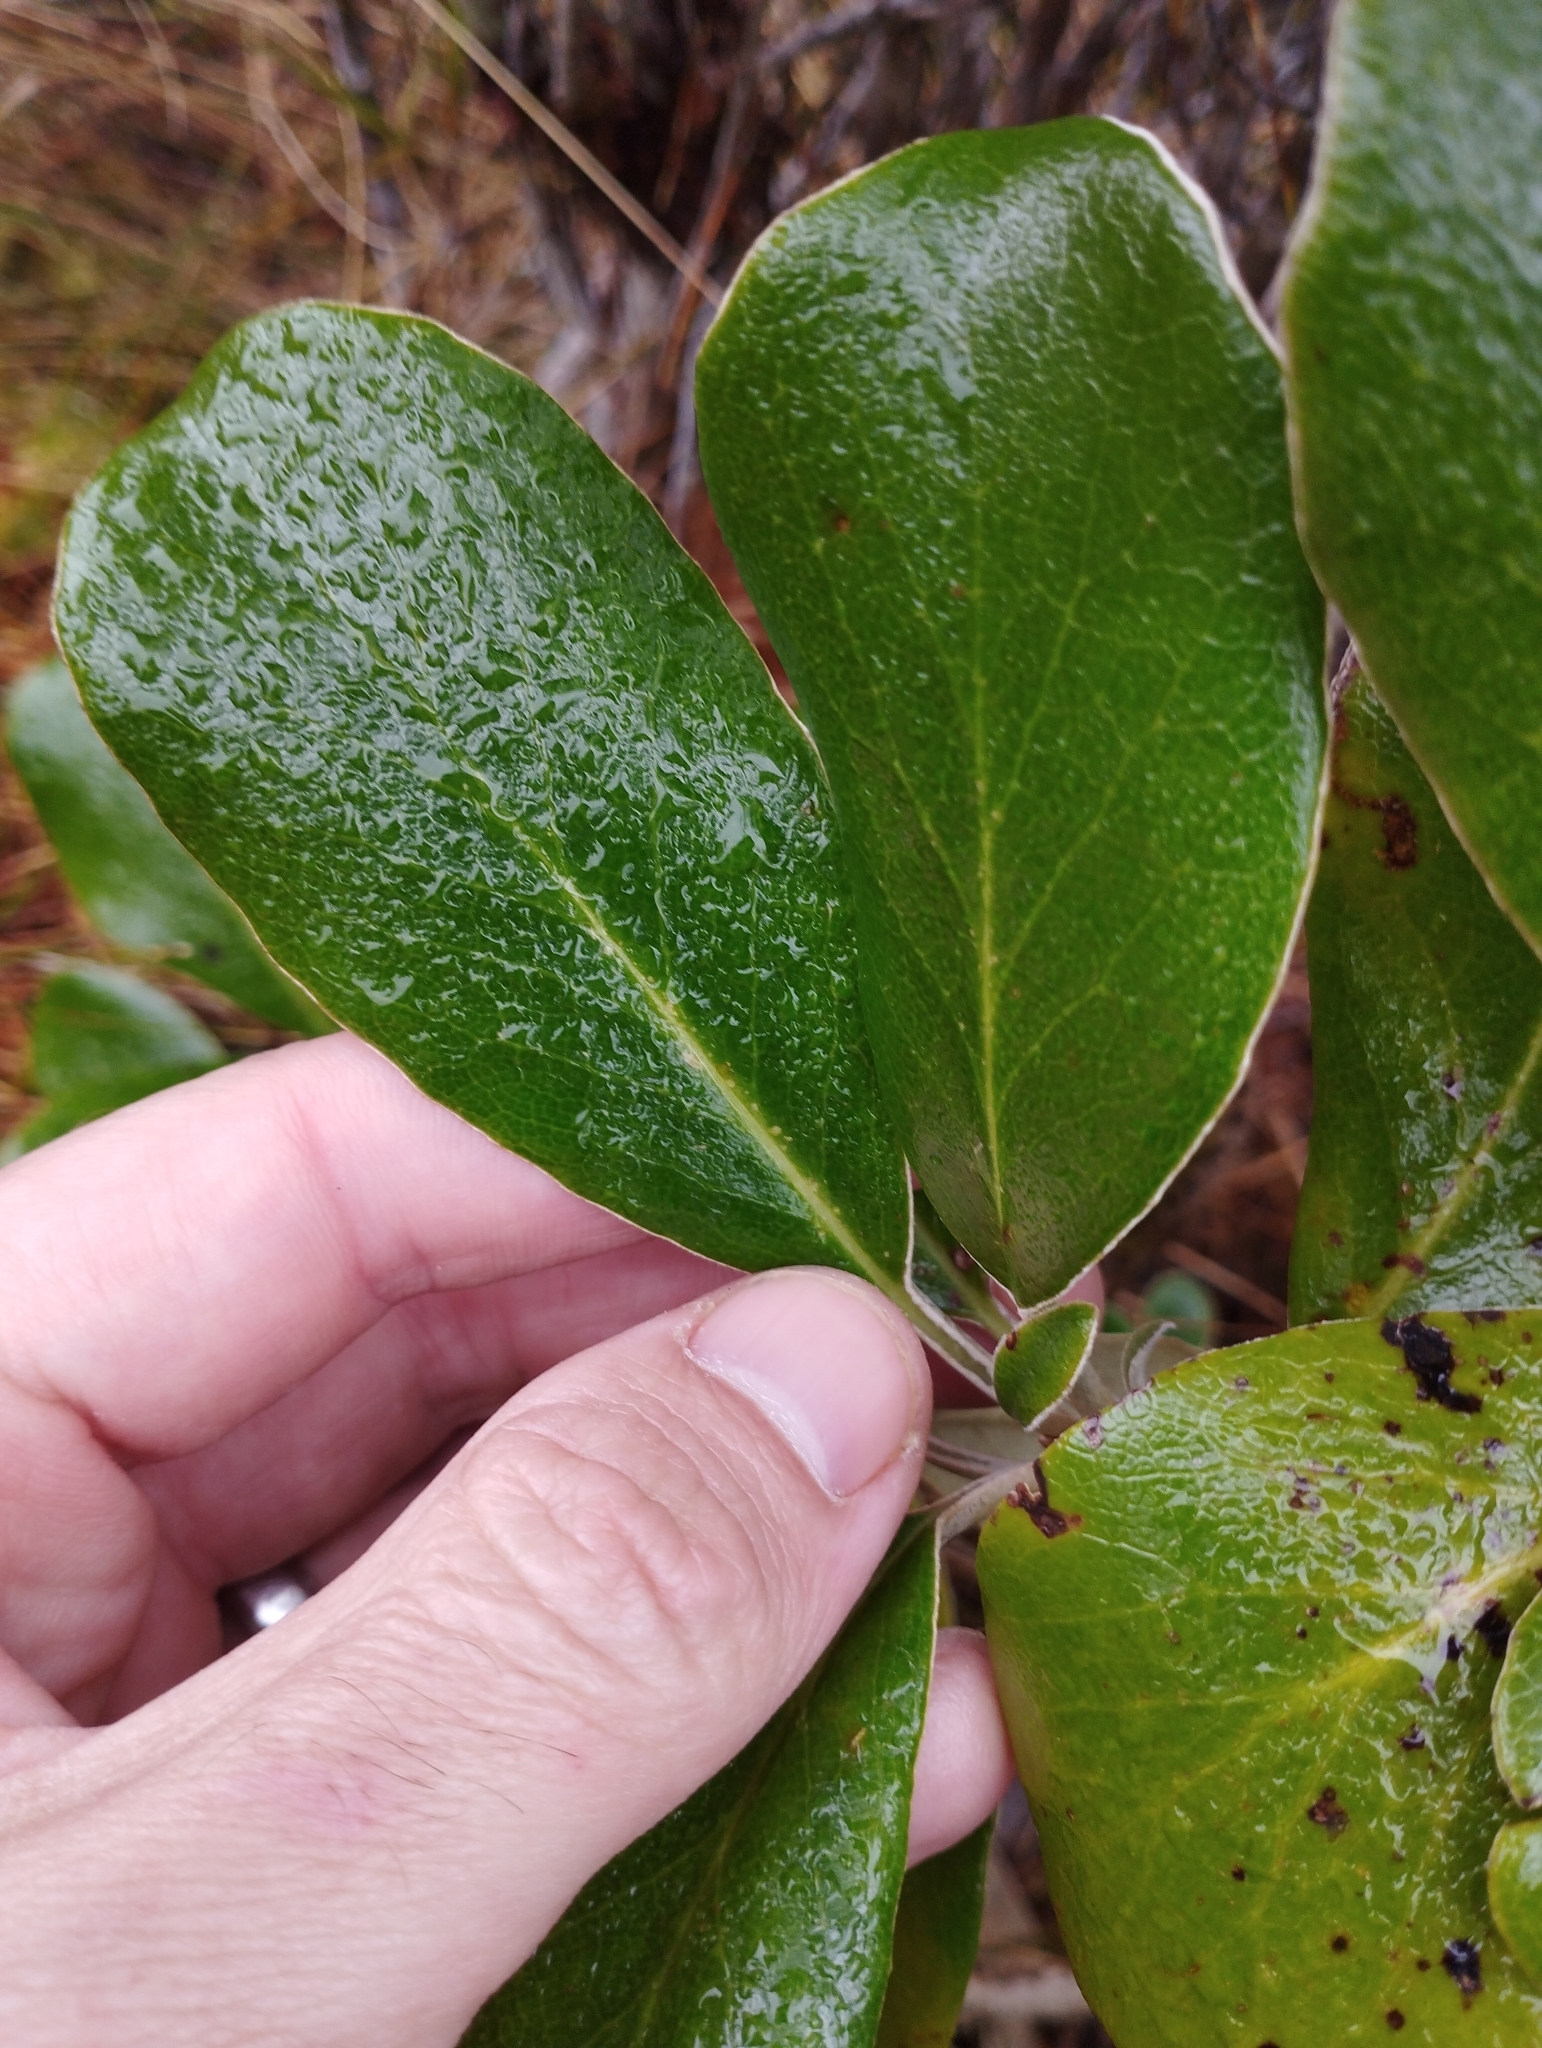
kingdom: Plantae
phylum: Tracheophyta
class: Magnoliopsida
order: Asterales
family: Asteraceae
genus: Brachyglottis
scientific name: Brachyglottis buchananii
